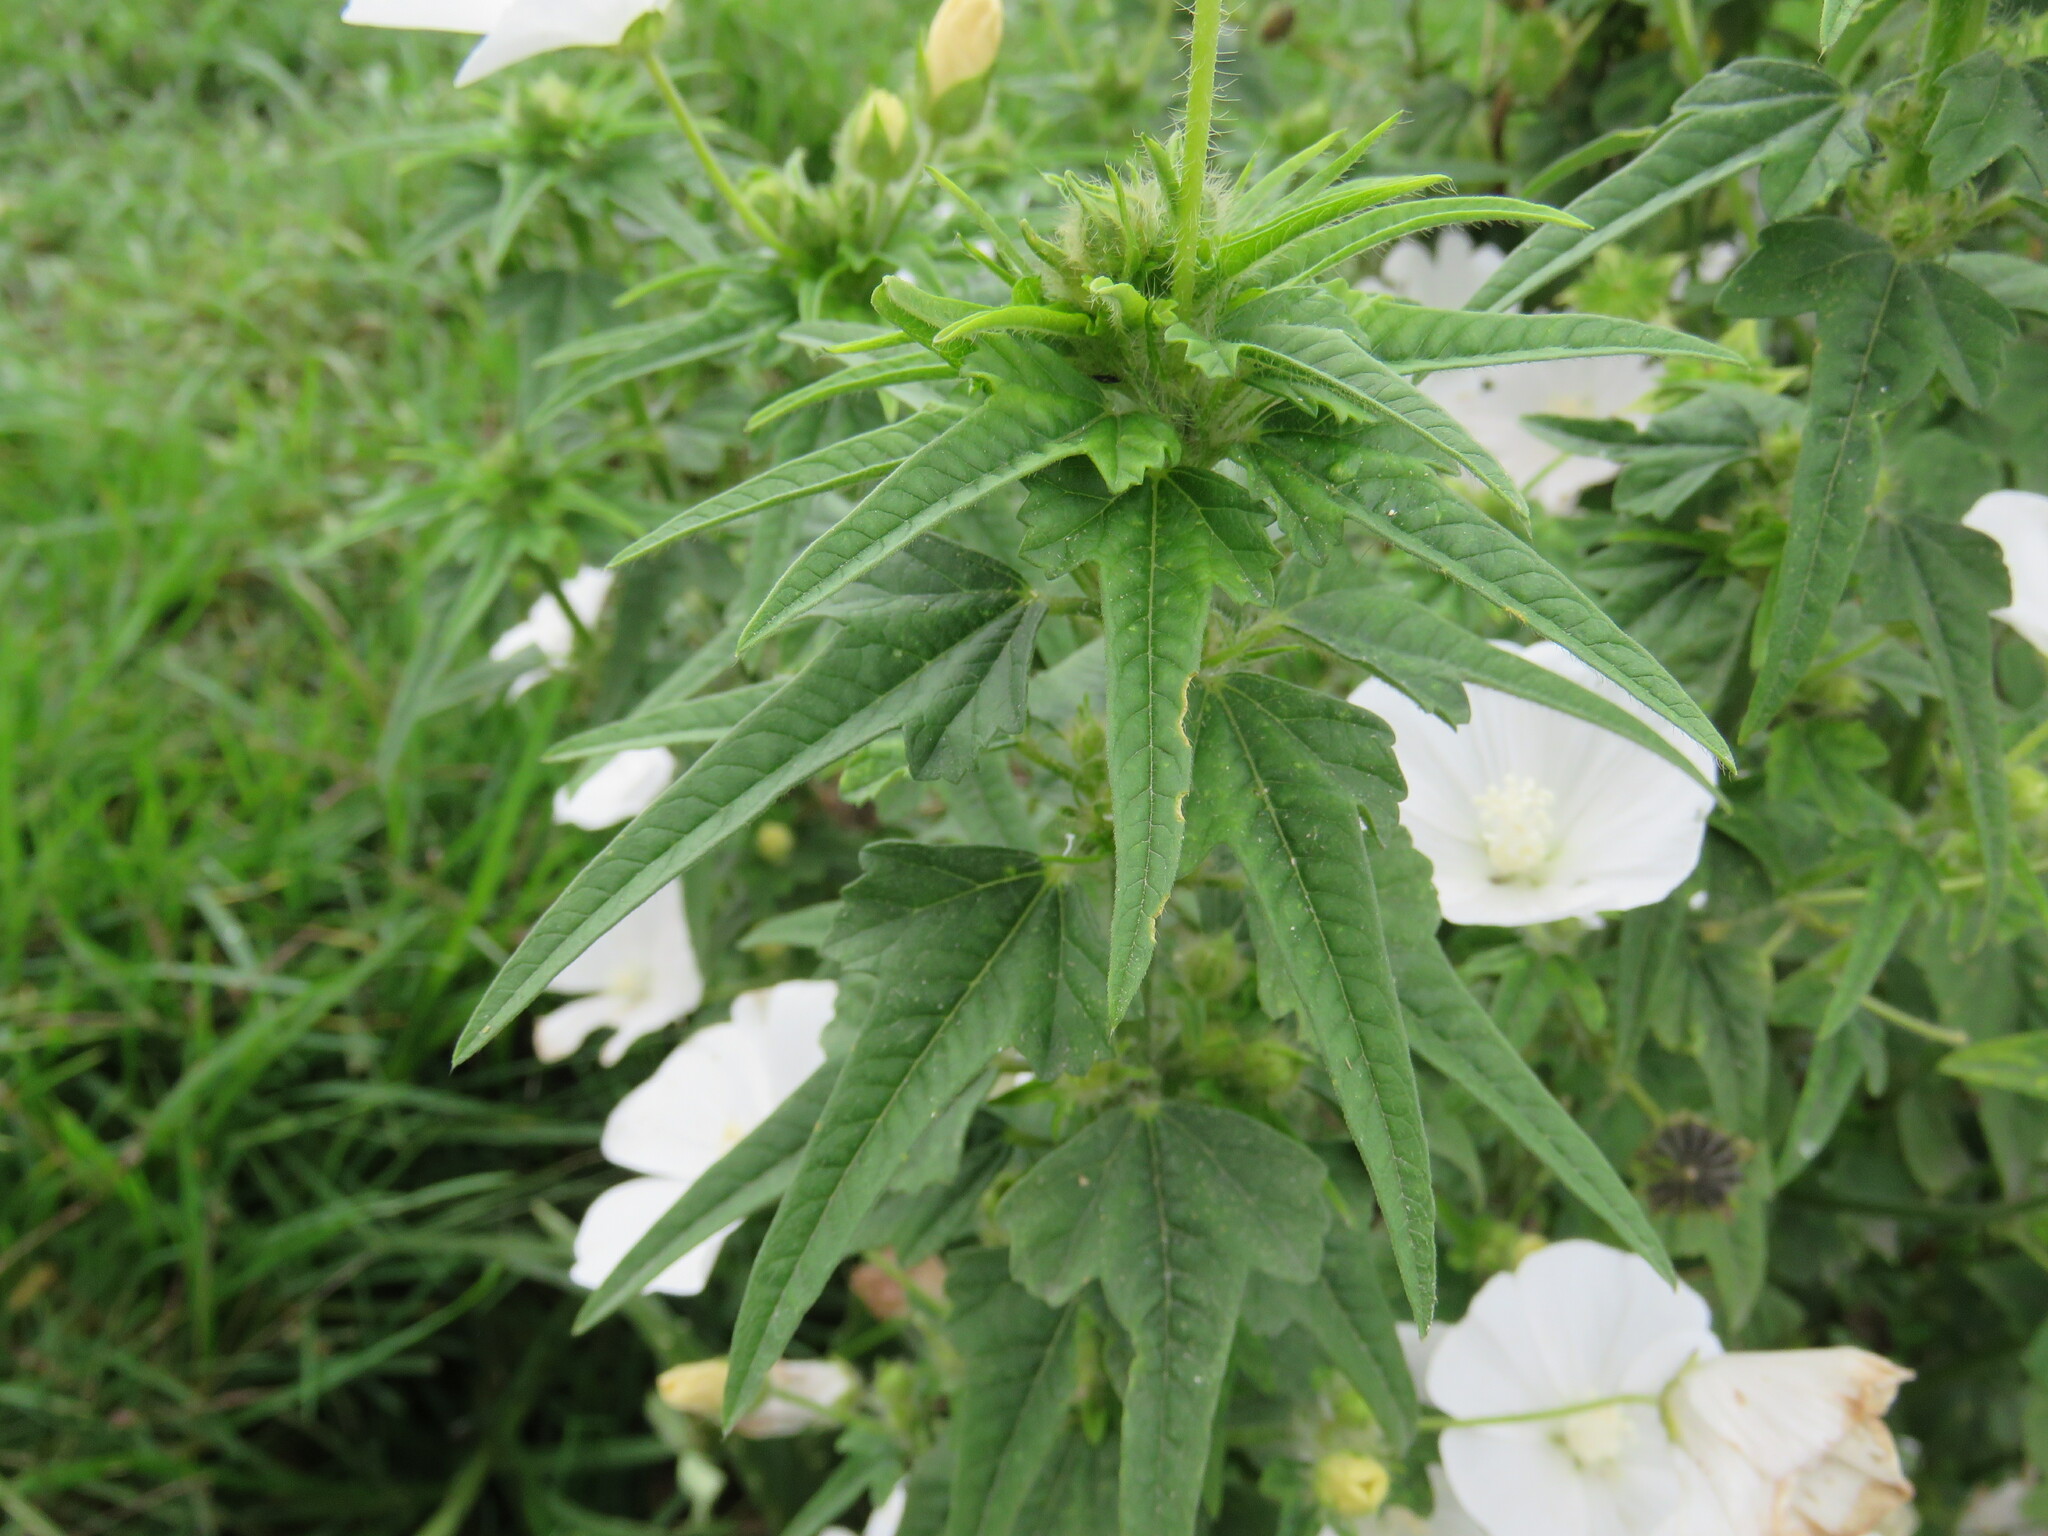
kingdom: Plantae
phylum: Tracheophyta
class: Magnoliopsida
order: Malvales
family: Malvaceae
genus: Anoda
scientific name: Anoda albiflora
